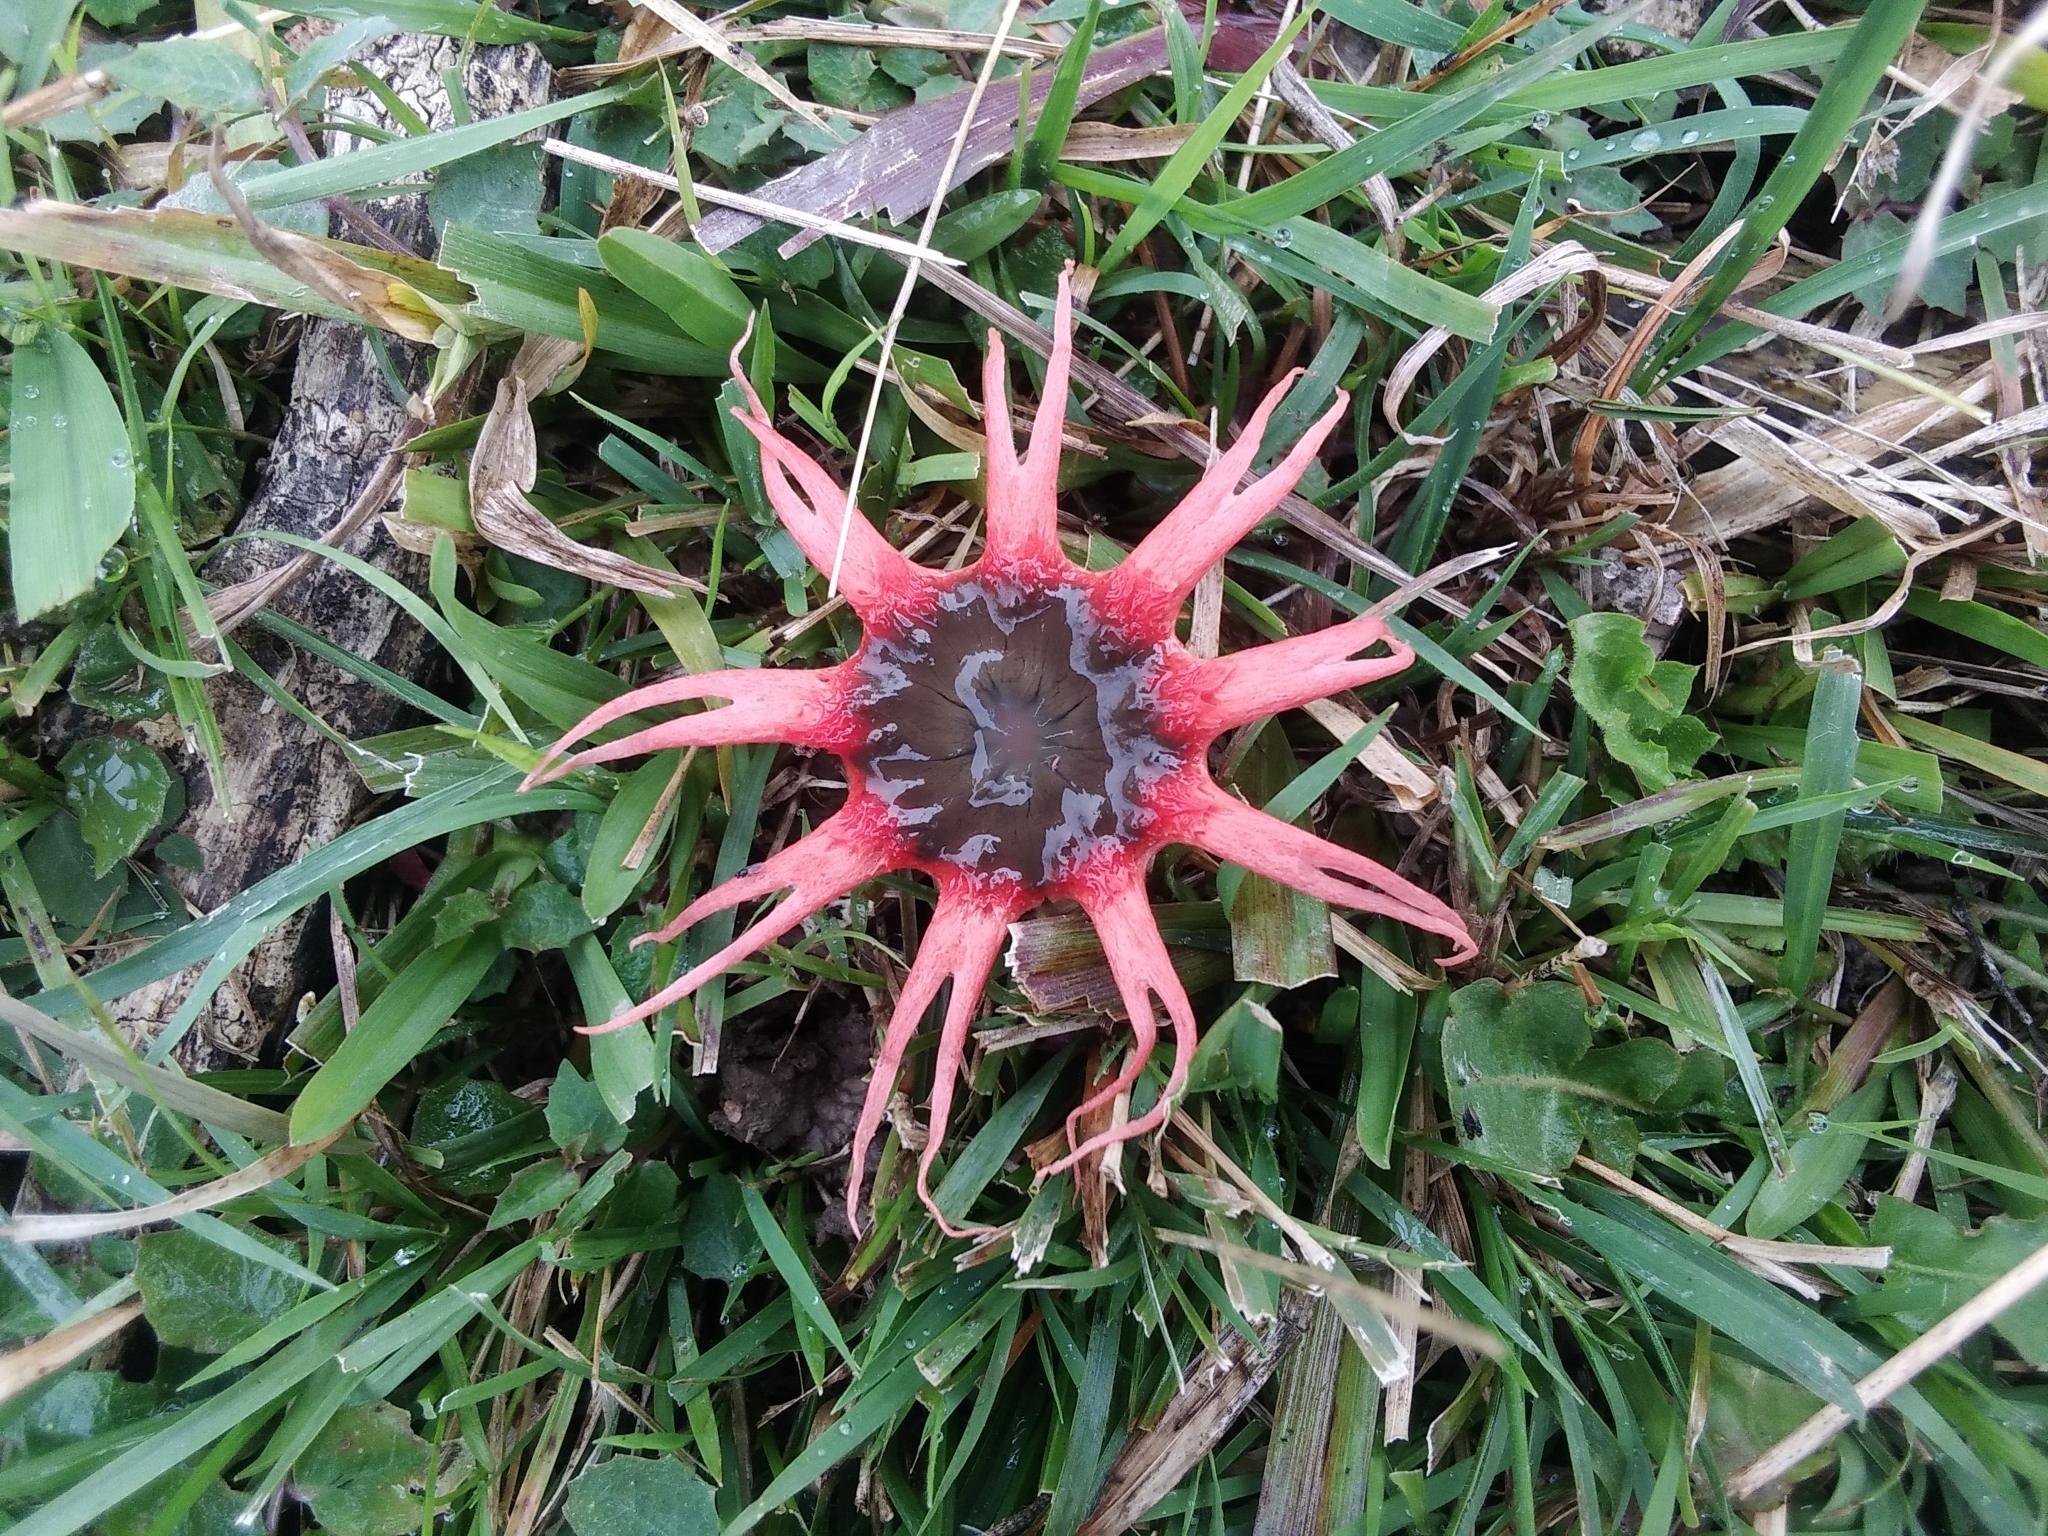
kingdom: Fungi
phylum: Basidiomycota
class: Agaricomycetes
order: Phallales
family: Phallaceae
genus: Aseroe
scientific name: Aseroe rubra
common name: Starfish fungus
